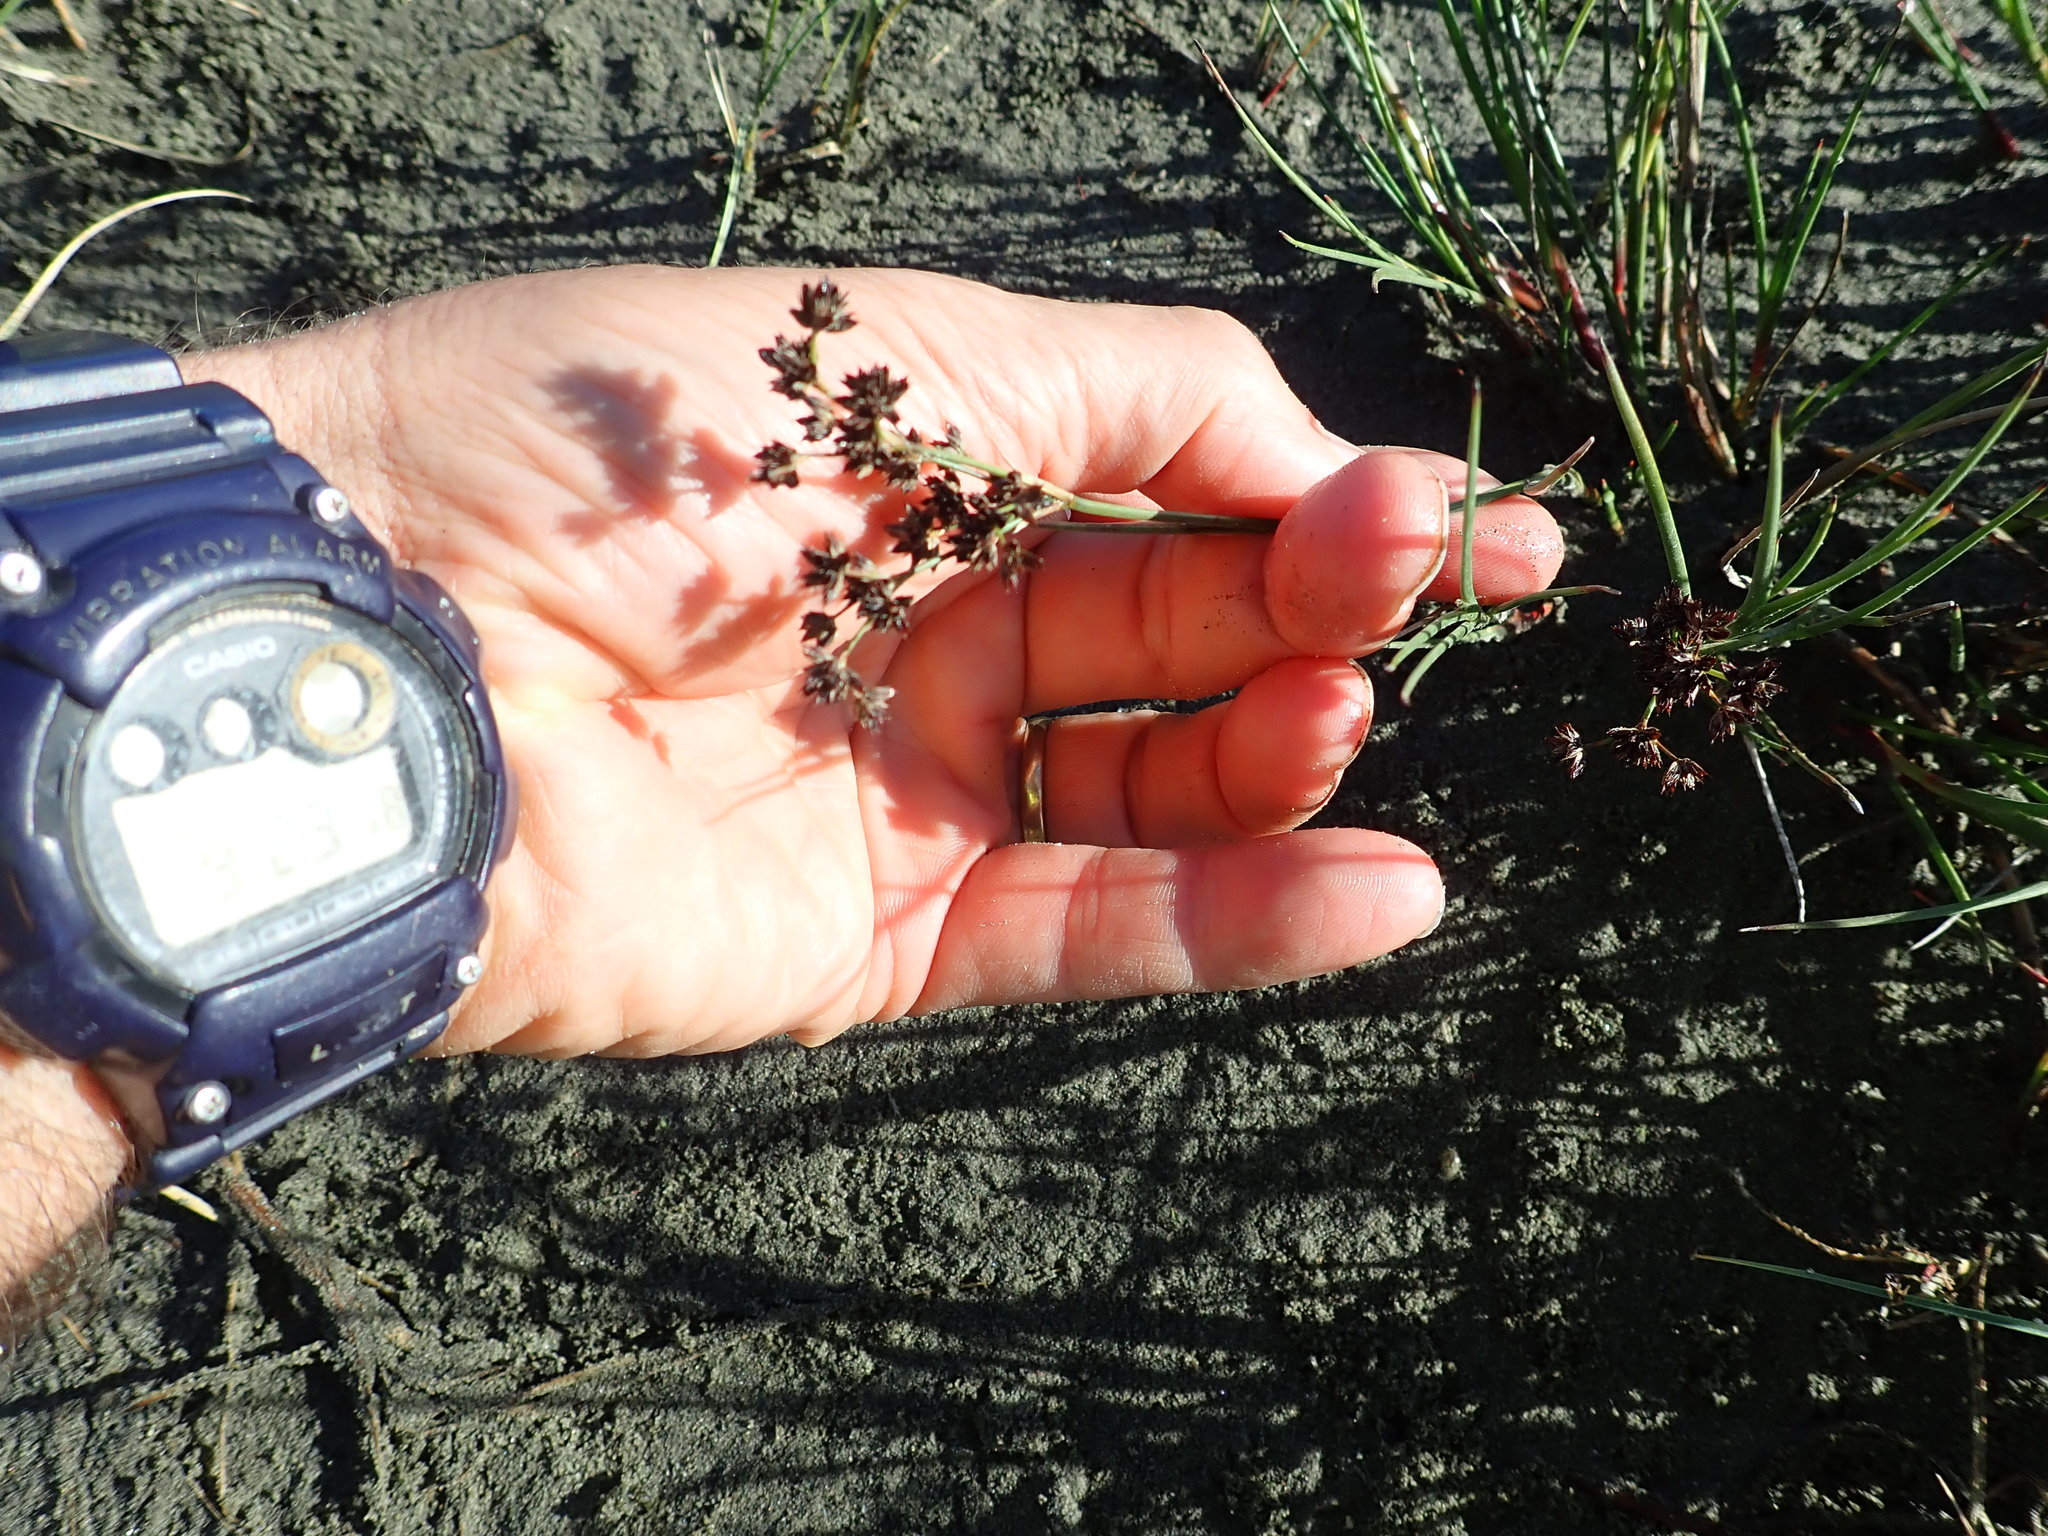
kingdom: Plantae
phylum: Tracheophyta
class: Liliopsida
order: Poales
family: Juncaceae
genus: Juncus
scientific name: Juncus articulatus
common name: Jointed rush
